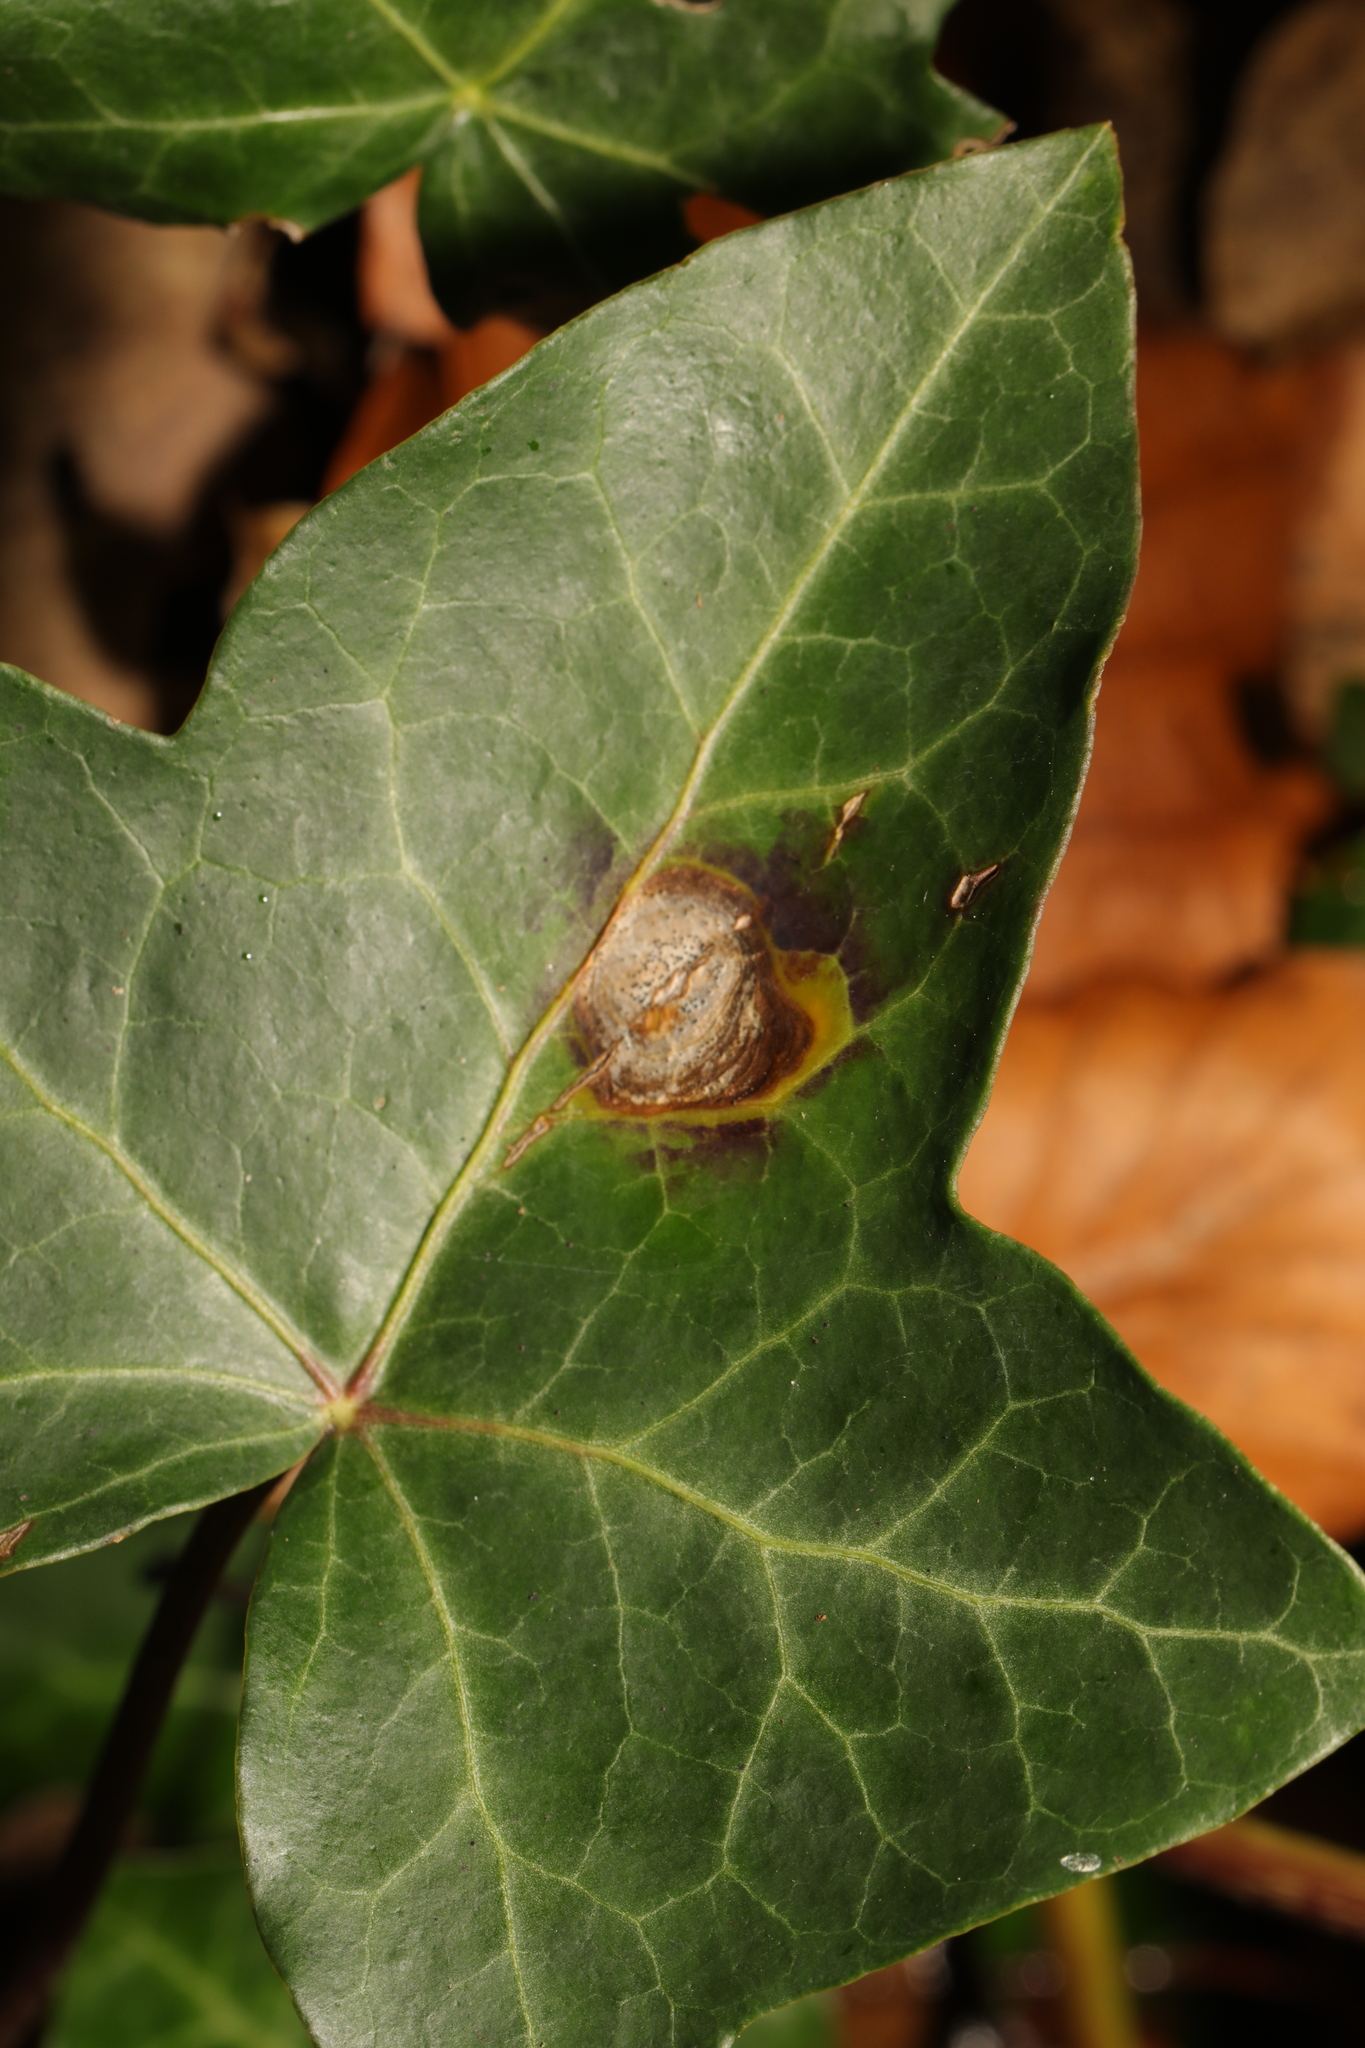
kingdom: Fungi
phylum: Ascomycota
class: Dothideomycetes
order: Pleosporales
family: Didymellaceae
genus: Boeremia
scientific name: Boeremia hedericola
